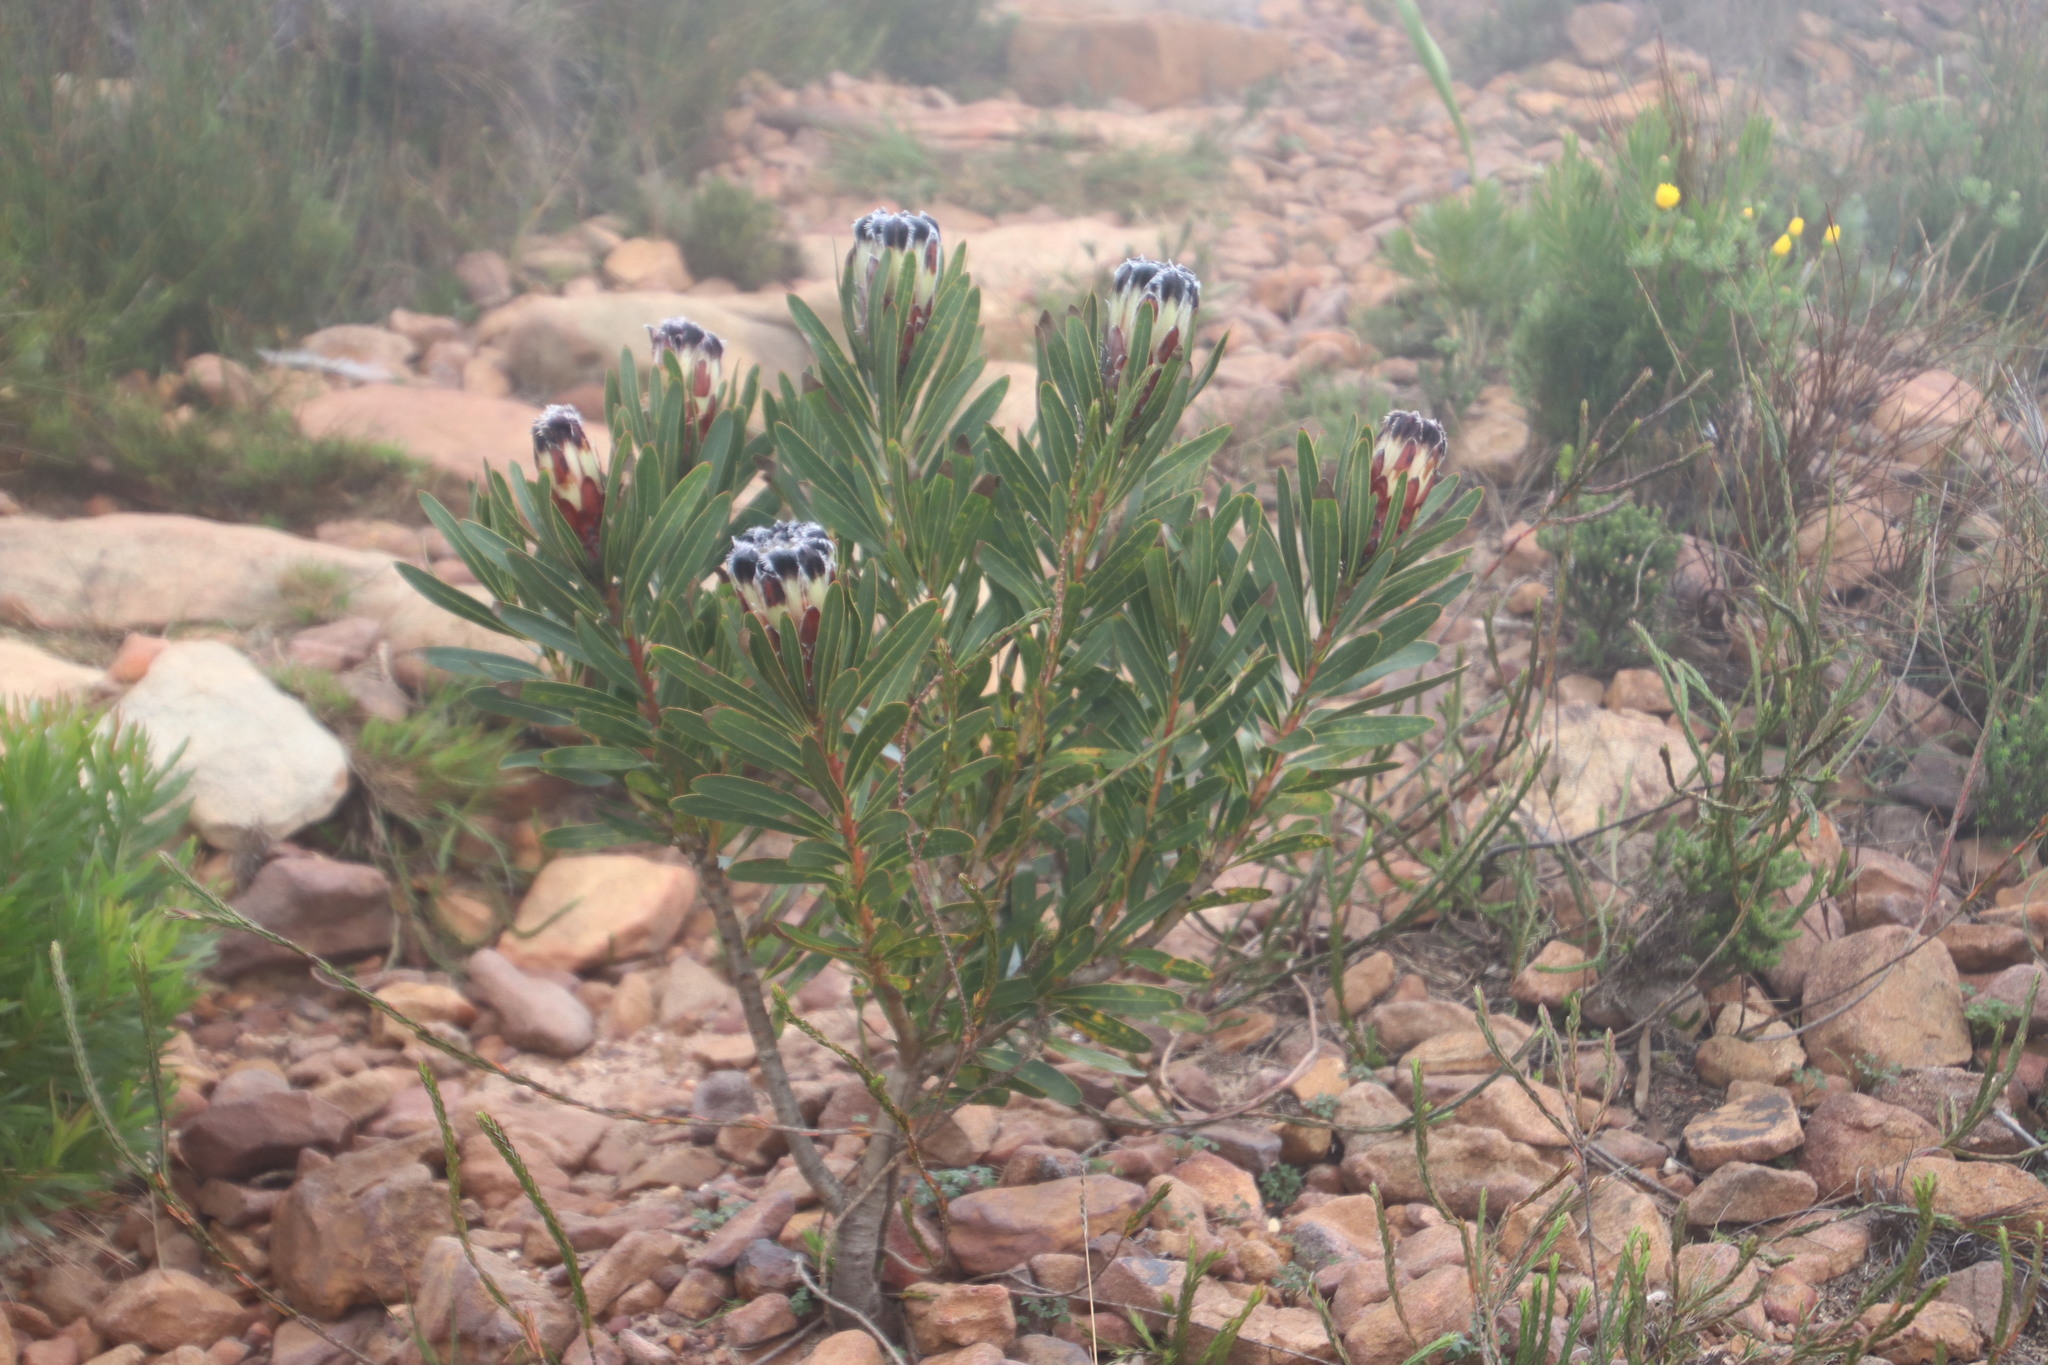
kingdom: Plantae
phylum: Tracheophyta
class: Magnoliopsida
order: Proteales
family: Proteaceae
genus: Protea
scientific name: Protea lepidocarpodendron
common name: Black-bearded protea
